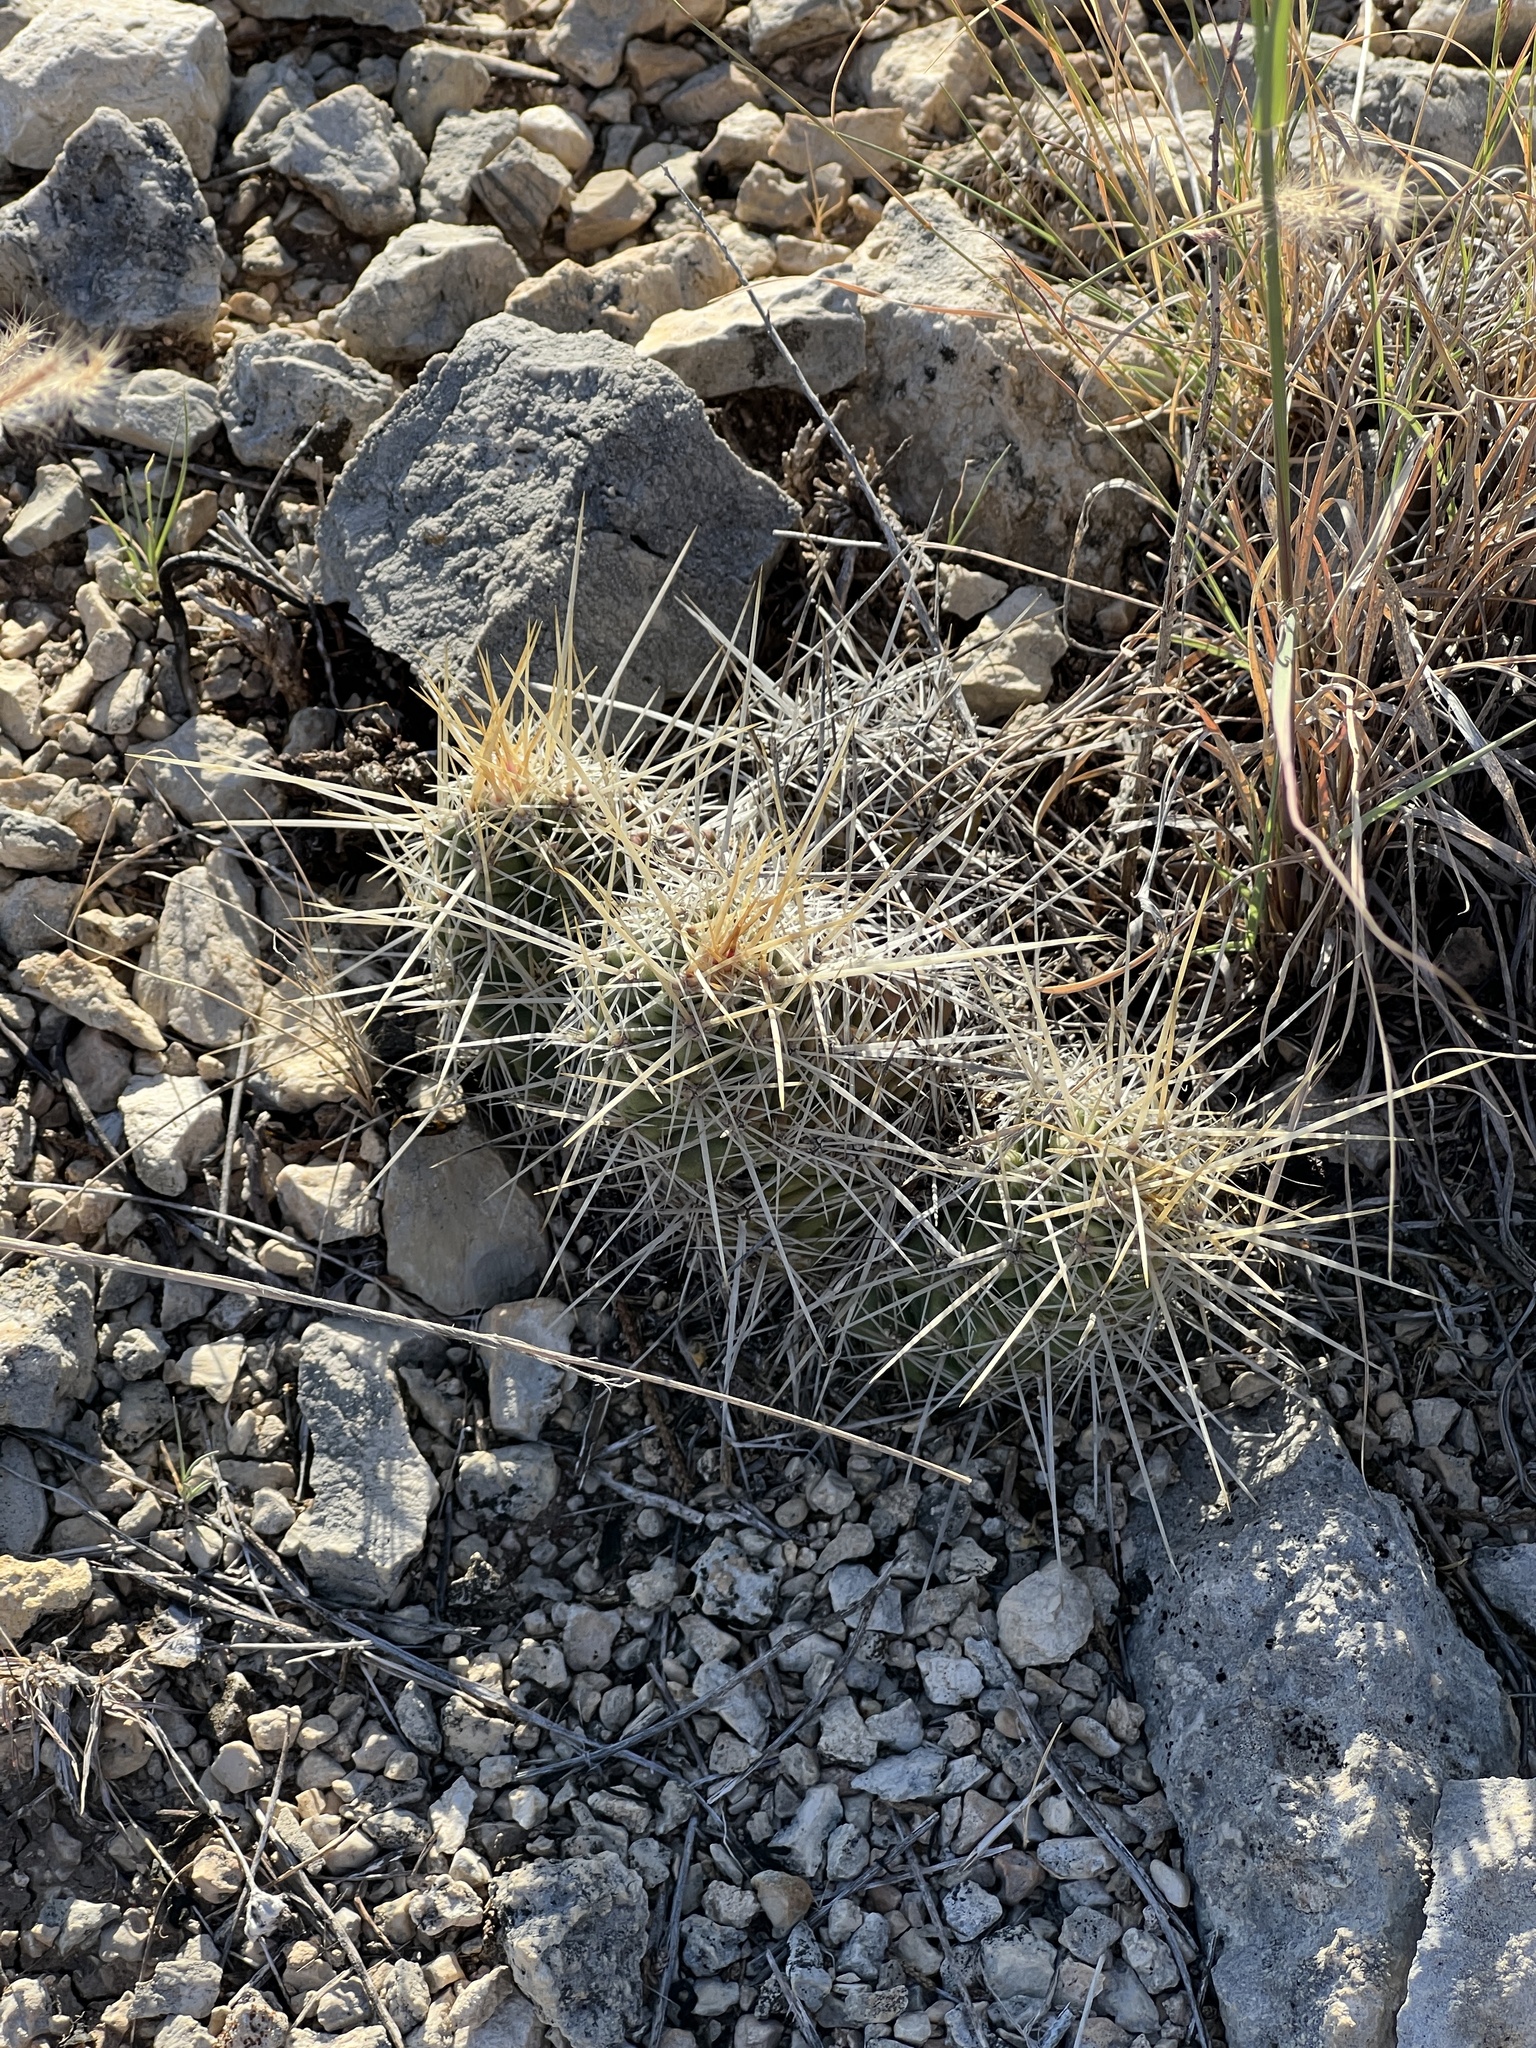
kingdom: Plantae
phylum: Tracheophyta
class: Magnoliopsida
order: Caryophyllales
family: Cactaceae
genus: Echinocereus
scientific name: Echinocereus enneacanthus
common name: Pitaya
